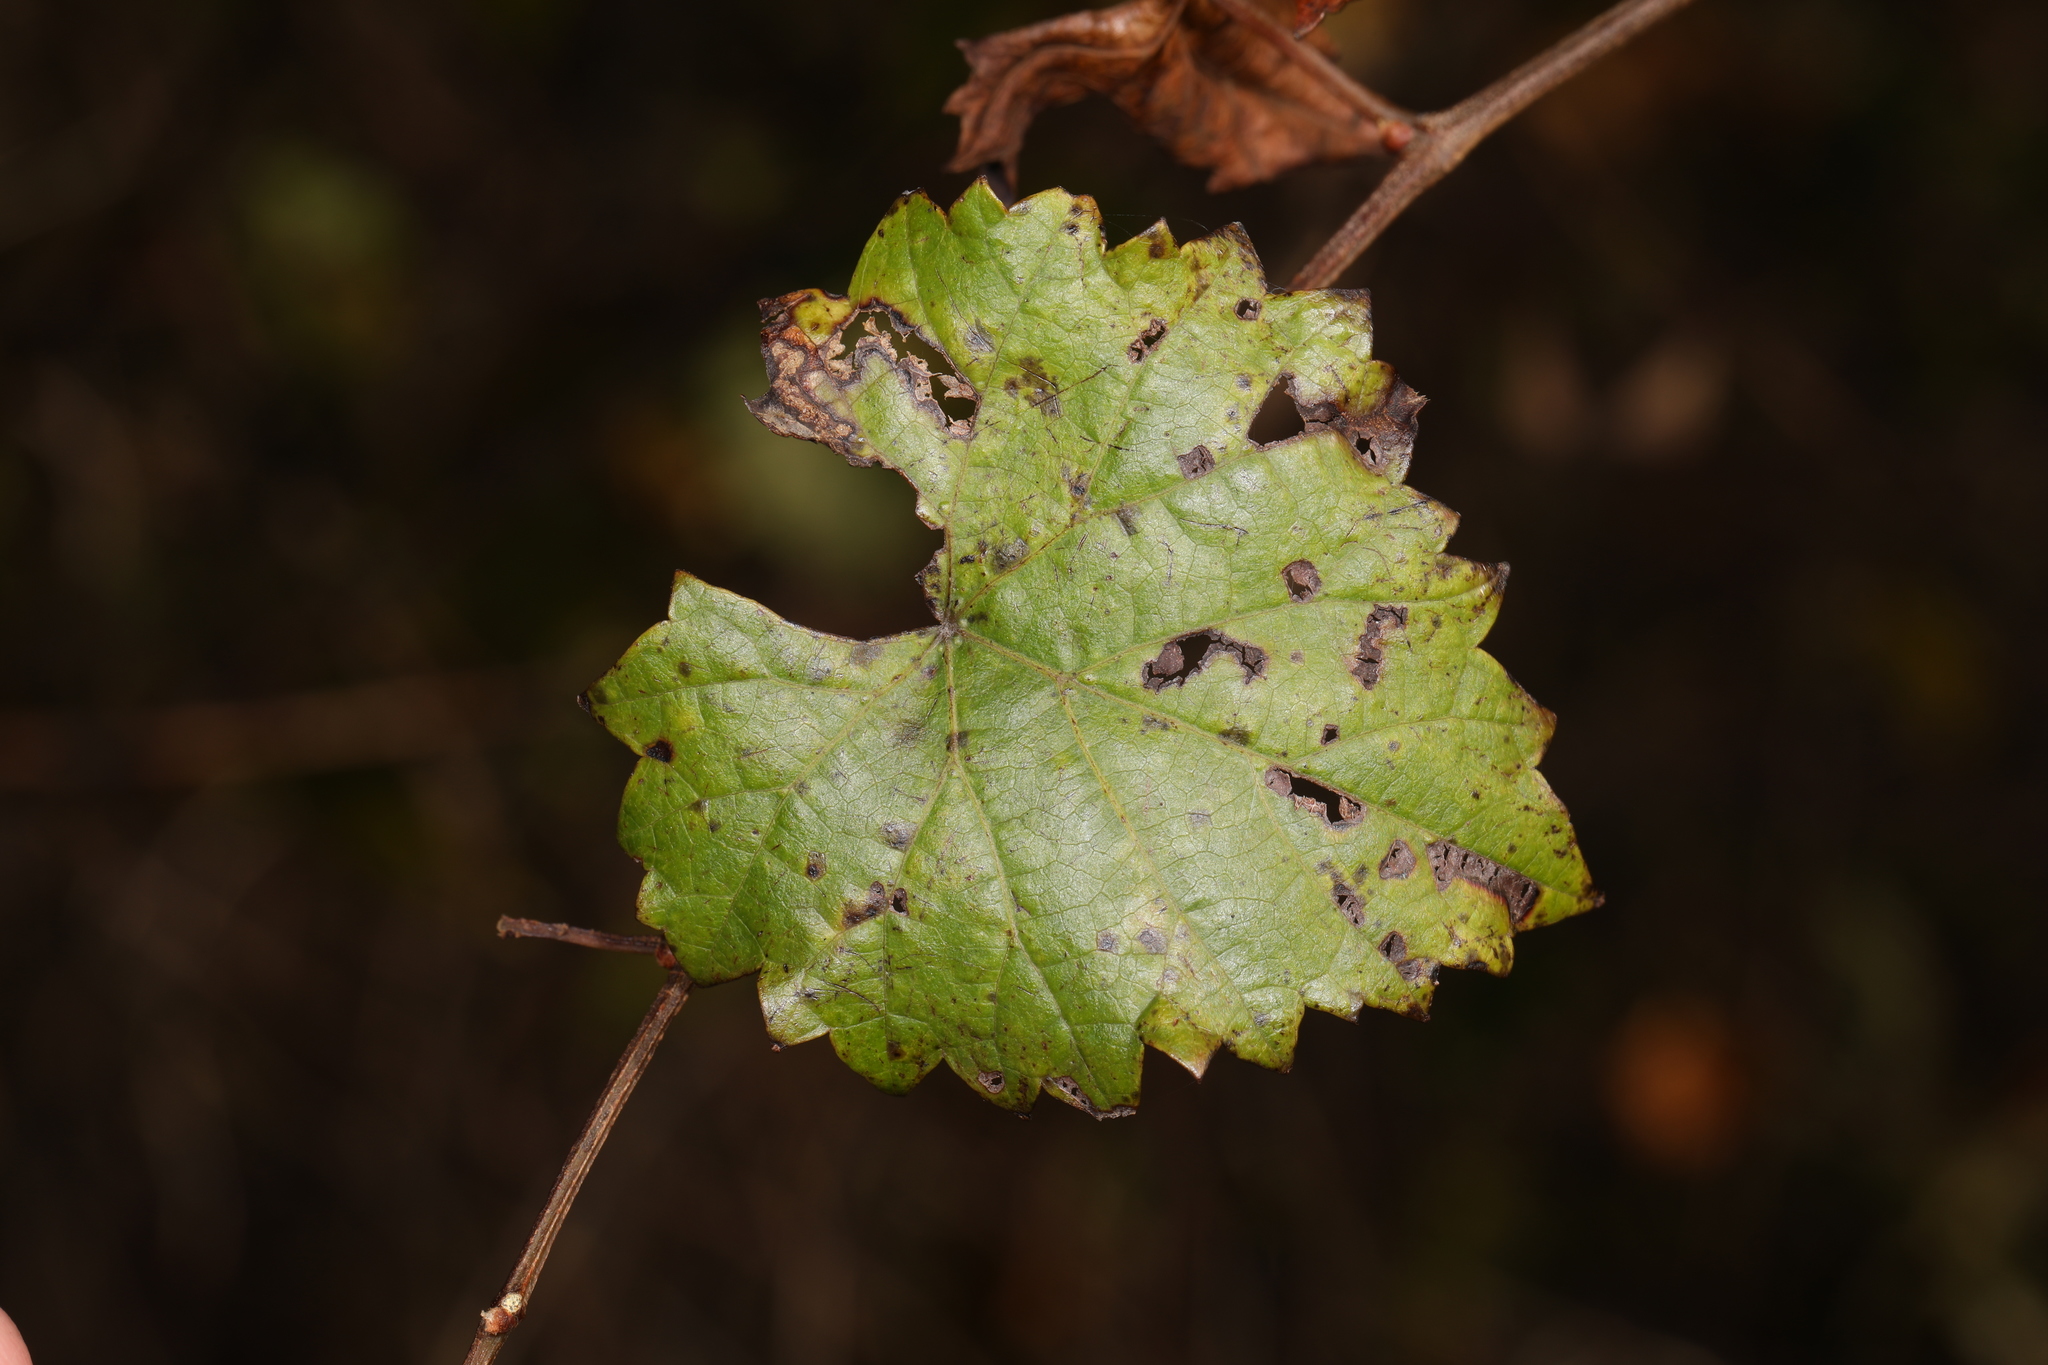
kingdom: Plantae
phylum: Tracheophyta
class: Magnoliopsida
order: Vitales
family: Vitaceae
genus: Vitis
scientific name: Vitis rotundifolia
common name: Muscadine grape
